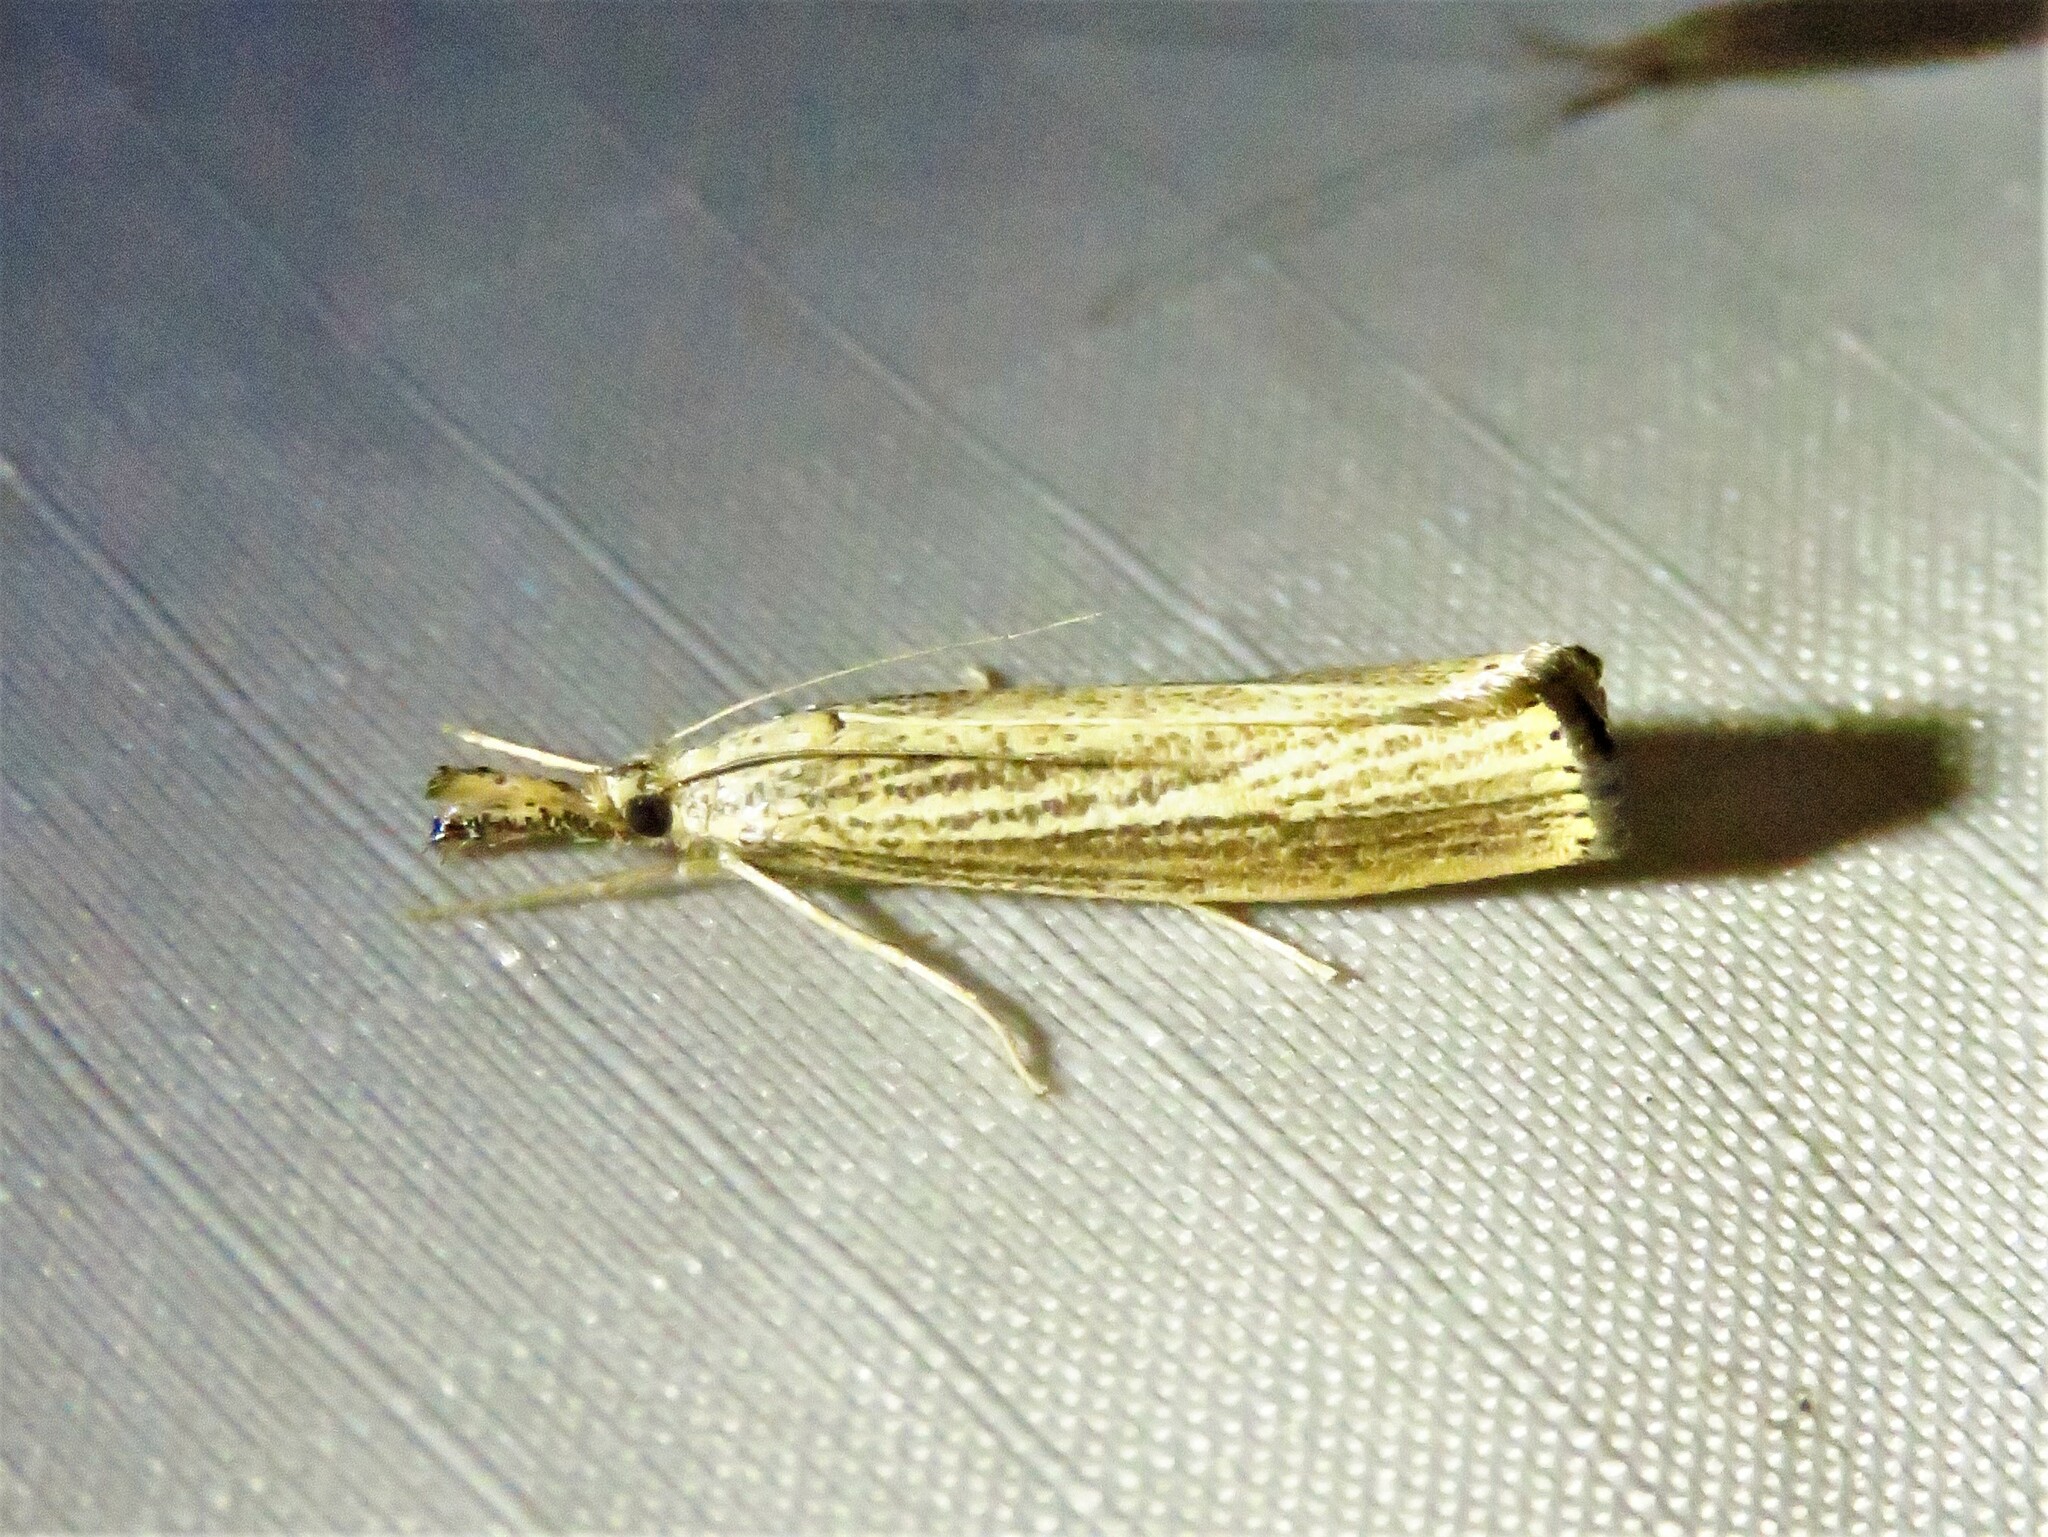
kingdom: Animalia
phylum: Arthropoda
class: Insecta
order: Lepidoptera
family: Crambidae
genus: Agriphila
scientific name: Agriphila vulgivagellus
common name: Vagabond crambus moth
